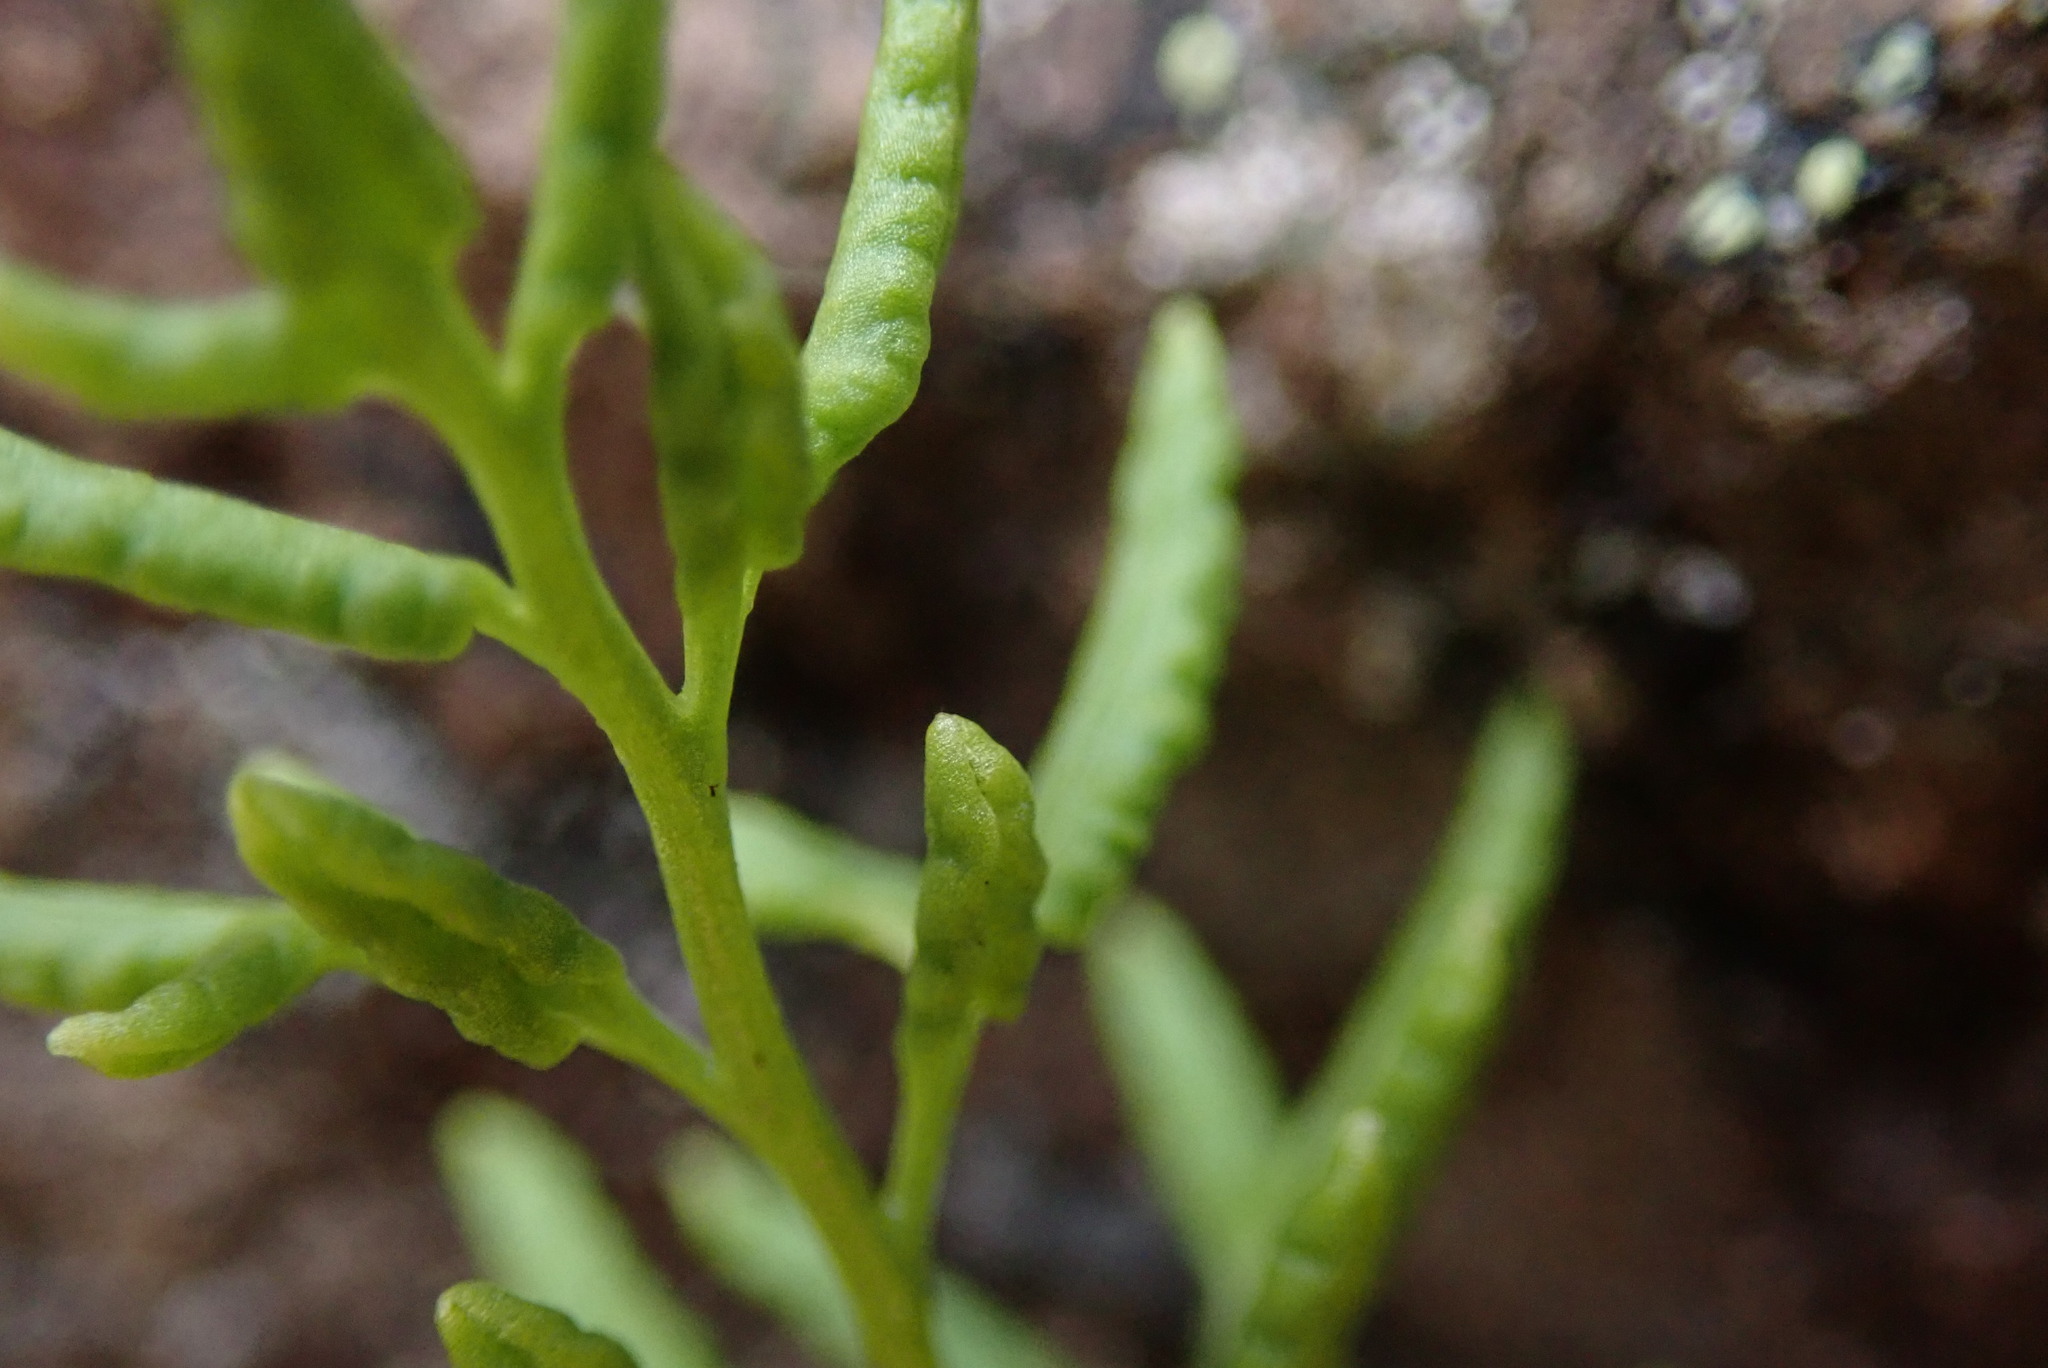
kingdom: Plantae
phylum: Tracheophyta
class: Polypodiopsida
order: Polypodiales
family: Pteridaceae
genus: Cryptogramma
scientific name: Cryptogramma acrostichoides
